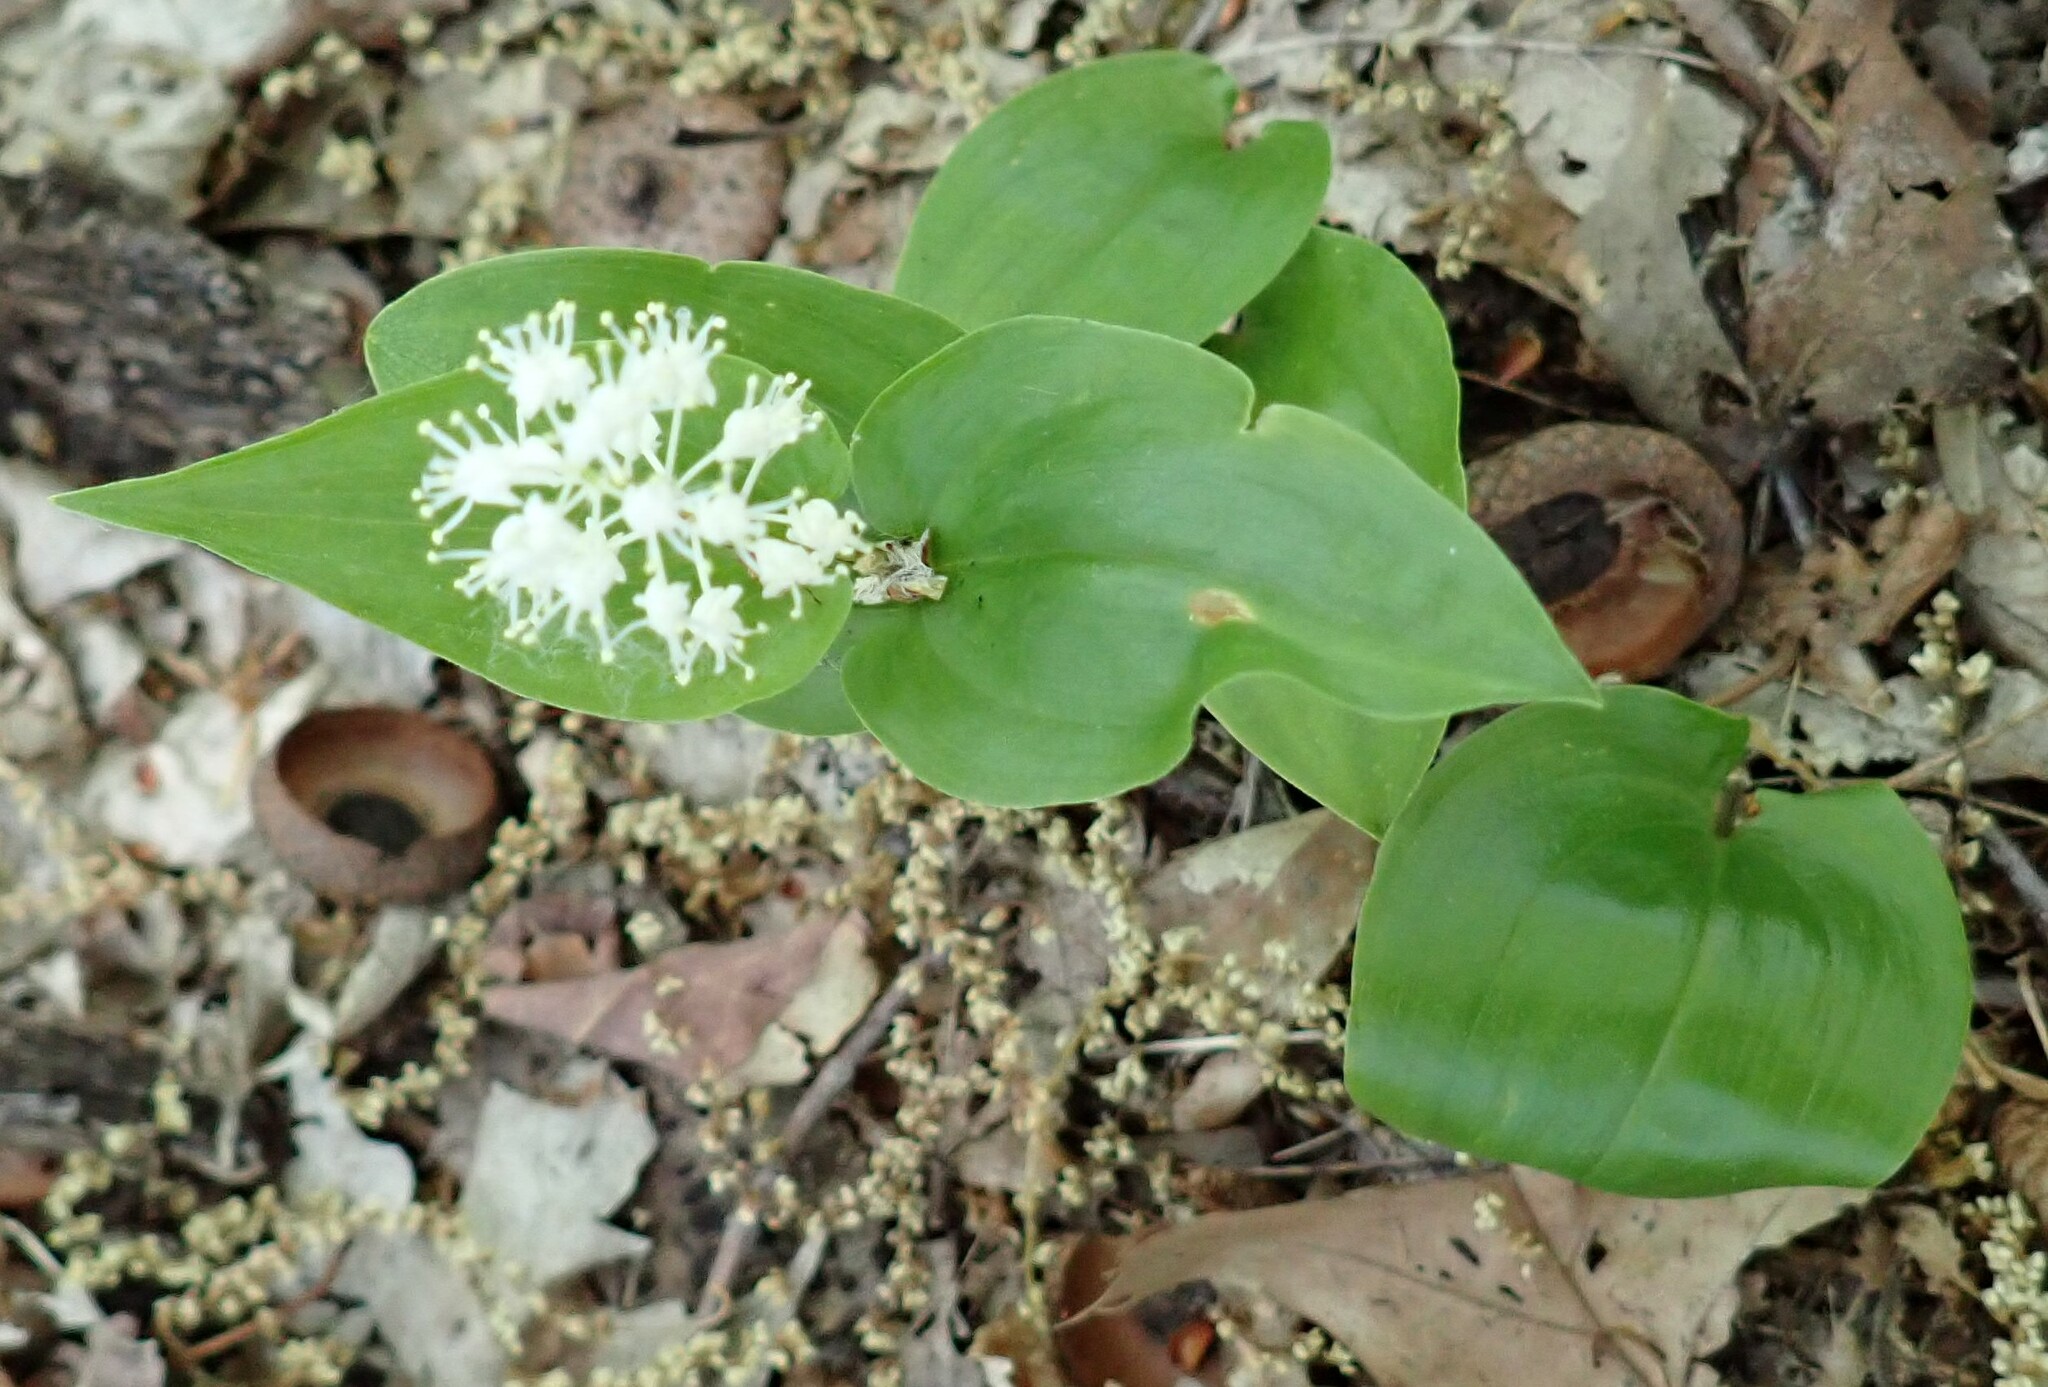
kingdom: Plantae
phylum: Tracheophyta
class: Liliopsida
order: Asparagales
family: Asparagaceae
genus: Maianthemum
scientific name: Maianthemum canadense
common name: False lily-of-the-valley
